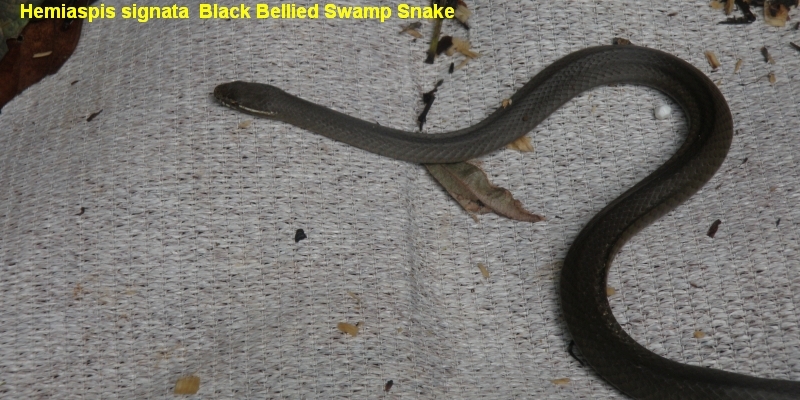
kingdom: Animalia
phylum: Chordata
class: Squamata
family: Elapidae
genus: Hemiaspis
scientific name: Hemiaspis signata
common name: Black-bellied swamp snake
